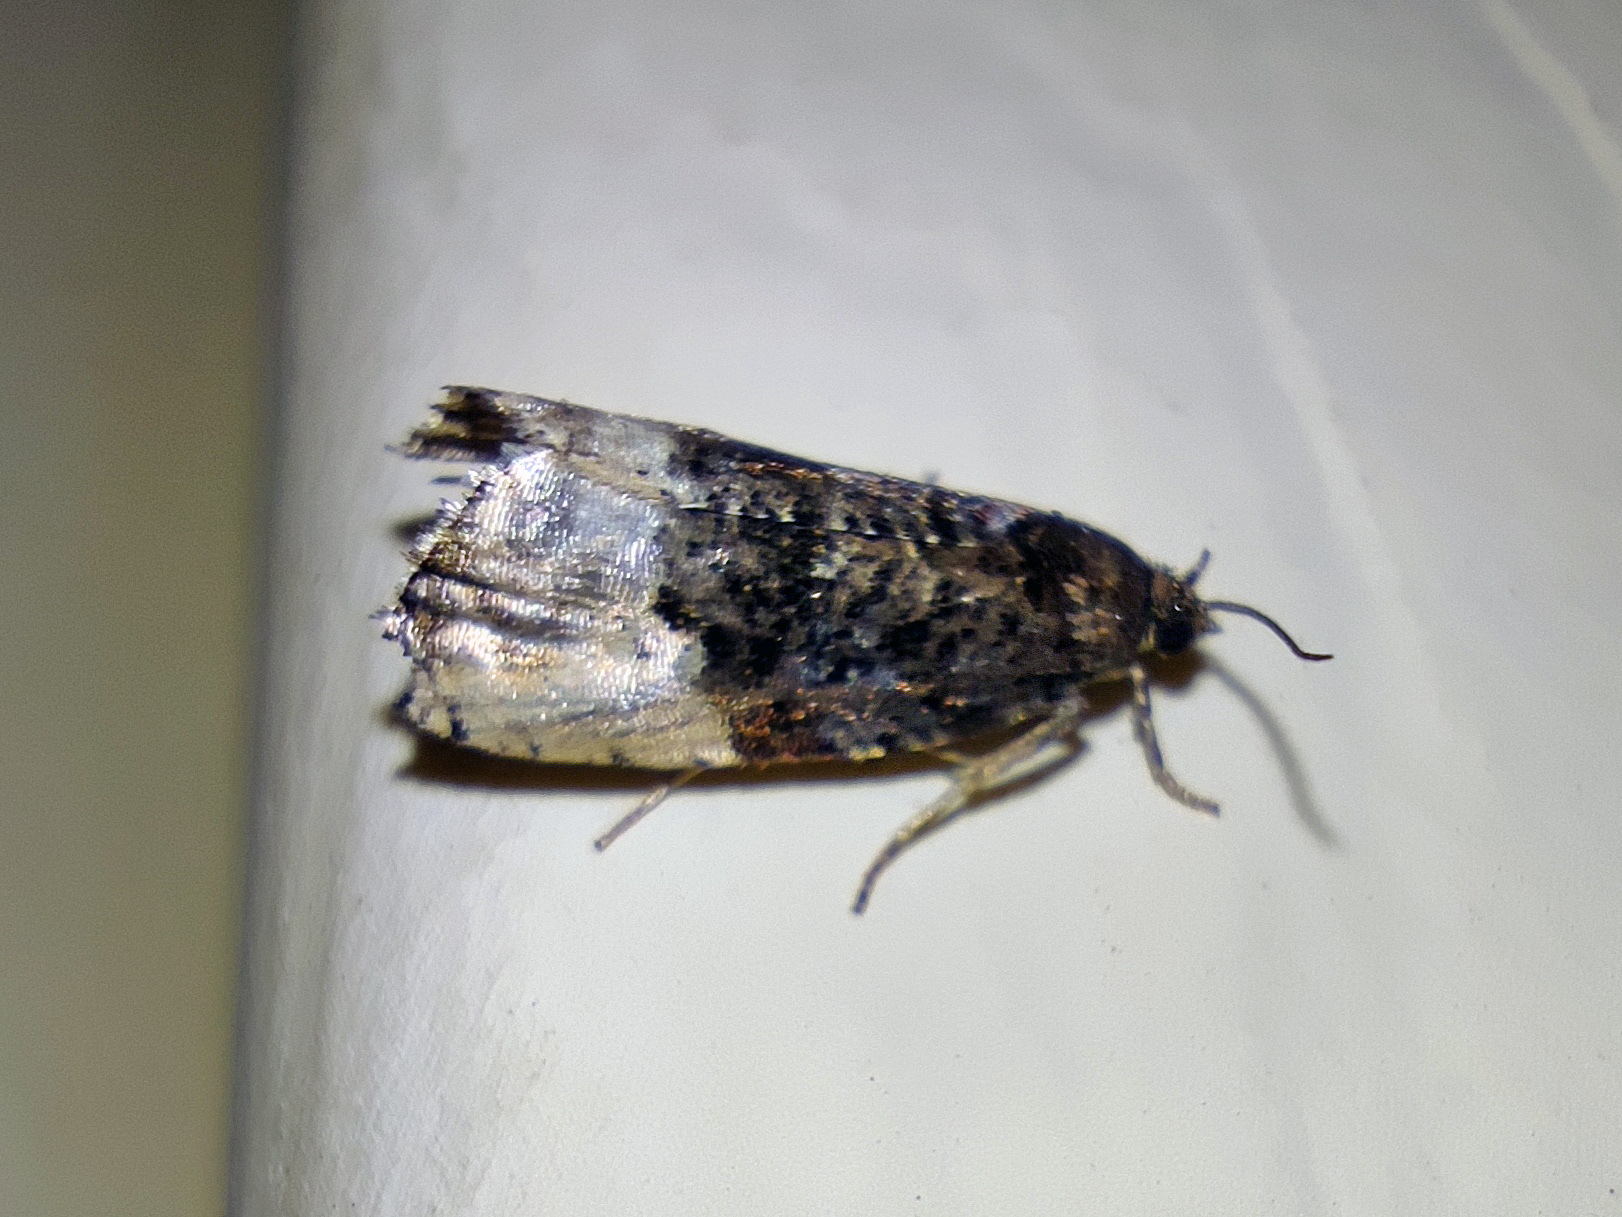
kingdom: Animalia
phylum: Arthropoda
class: Insecta
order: Lepidoptera
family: Tortricidae
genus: Hedya
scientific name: Hedya pruniana
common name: Plum tortrix
